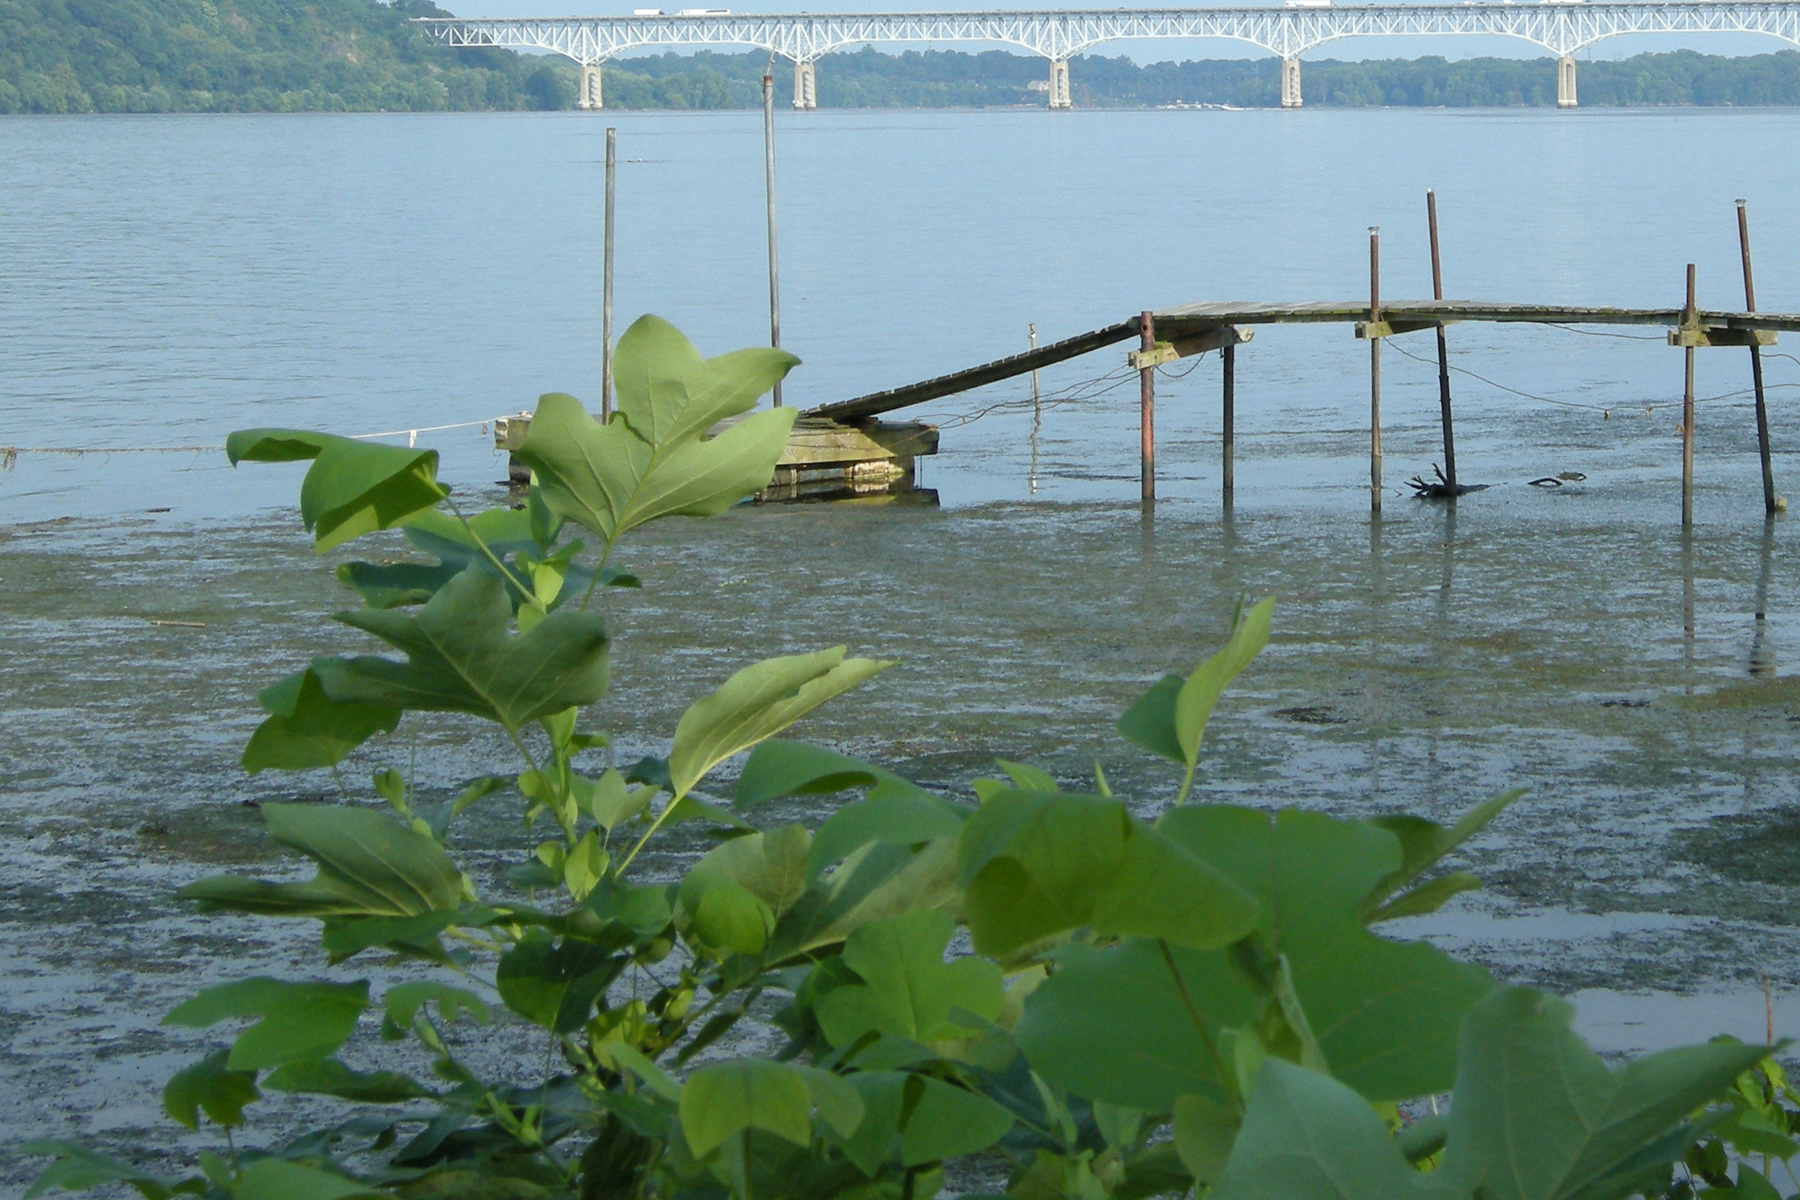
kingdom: Plantae
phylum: Tracheophyta
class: Magnoliopsida
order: Magnoliales
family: Magnoliaceae
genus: Liriodendron
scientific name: Liriodendron tulipifera
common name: Tulip tree
